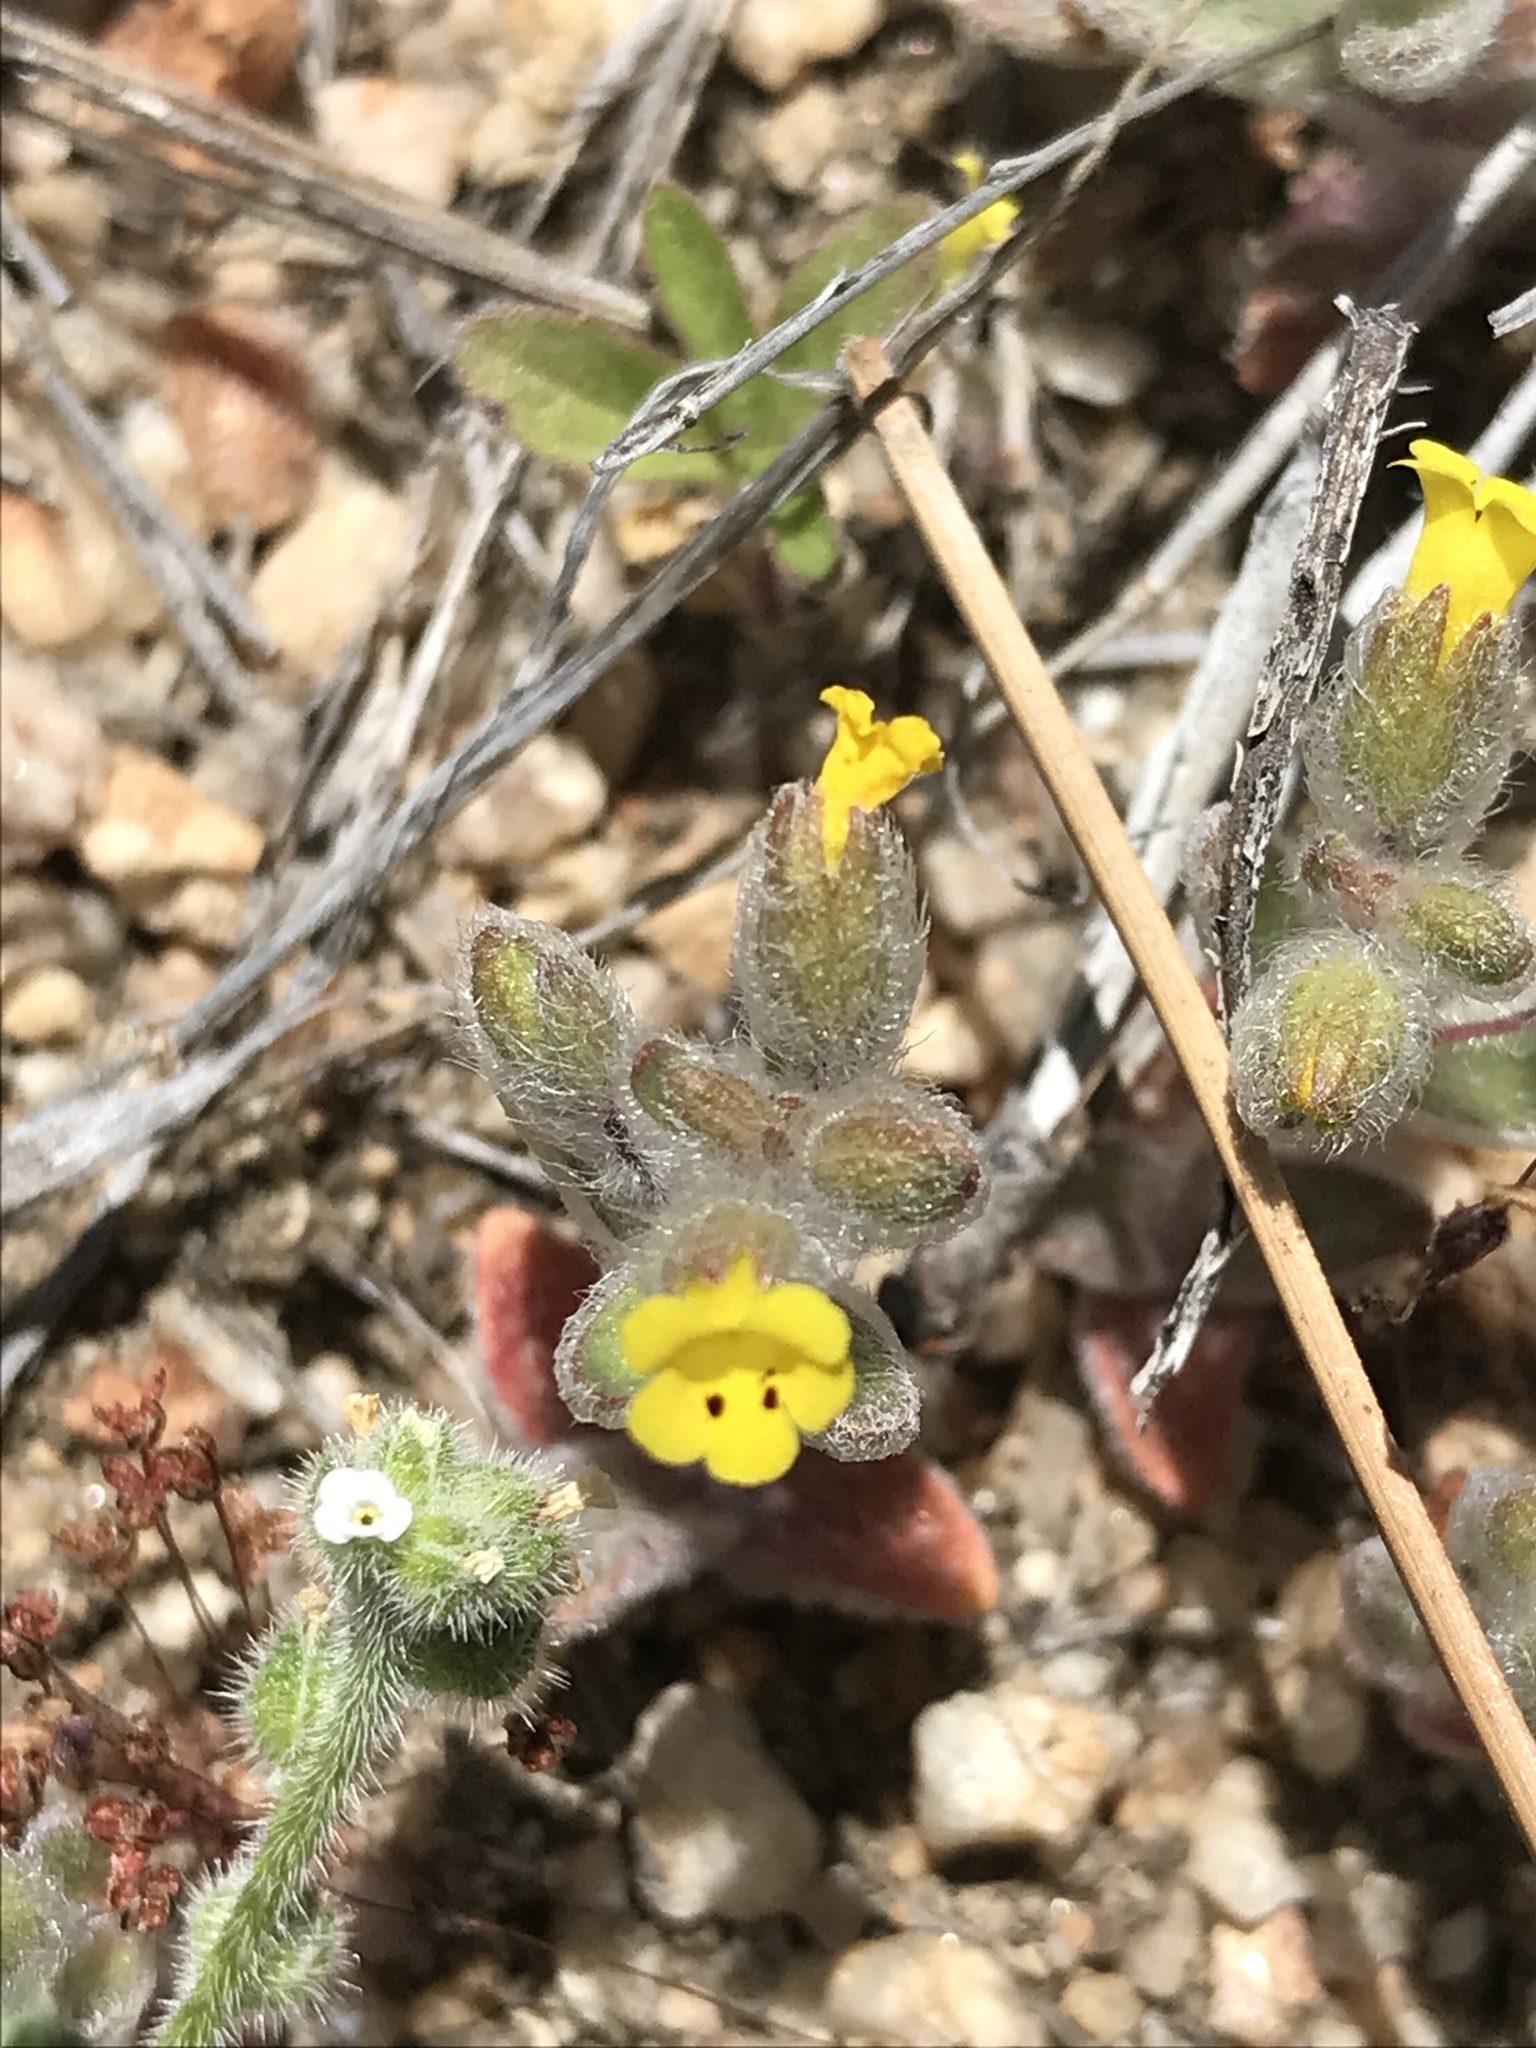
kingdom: Plantae
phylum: Tracheophyta
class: Magnoliopsida
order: Lamiales
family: Phrymaceae
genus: Mimetanthe
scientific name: Mimetanthe pilosa
